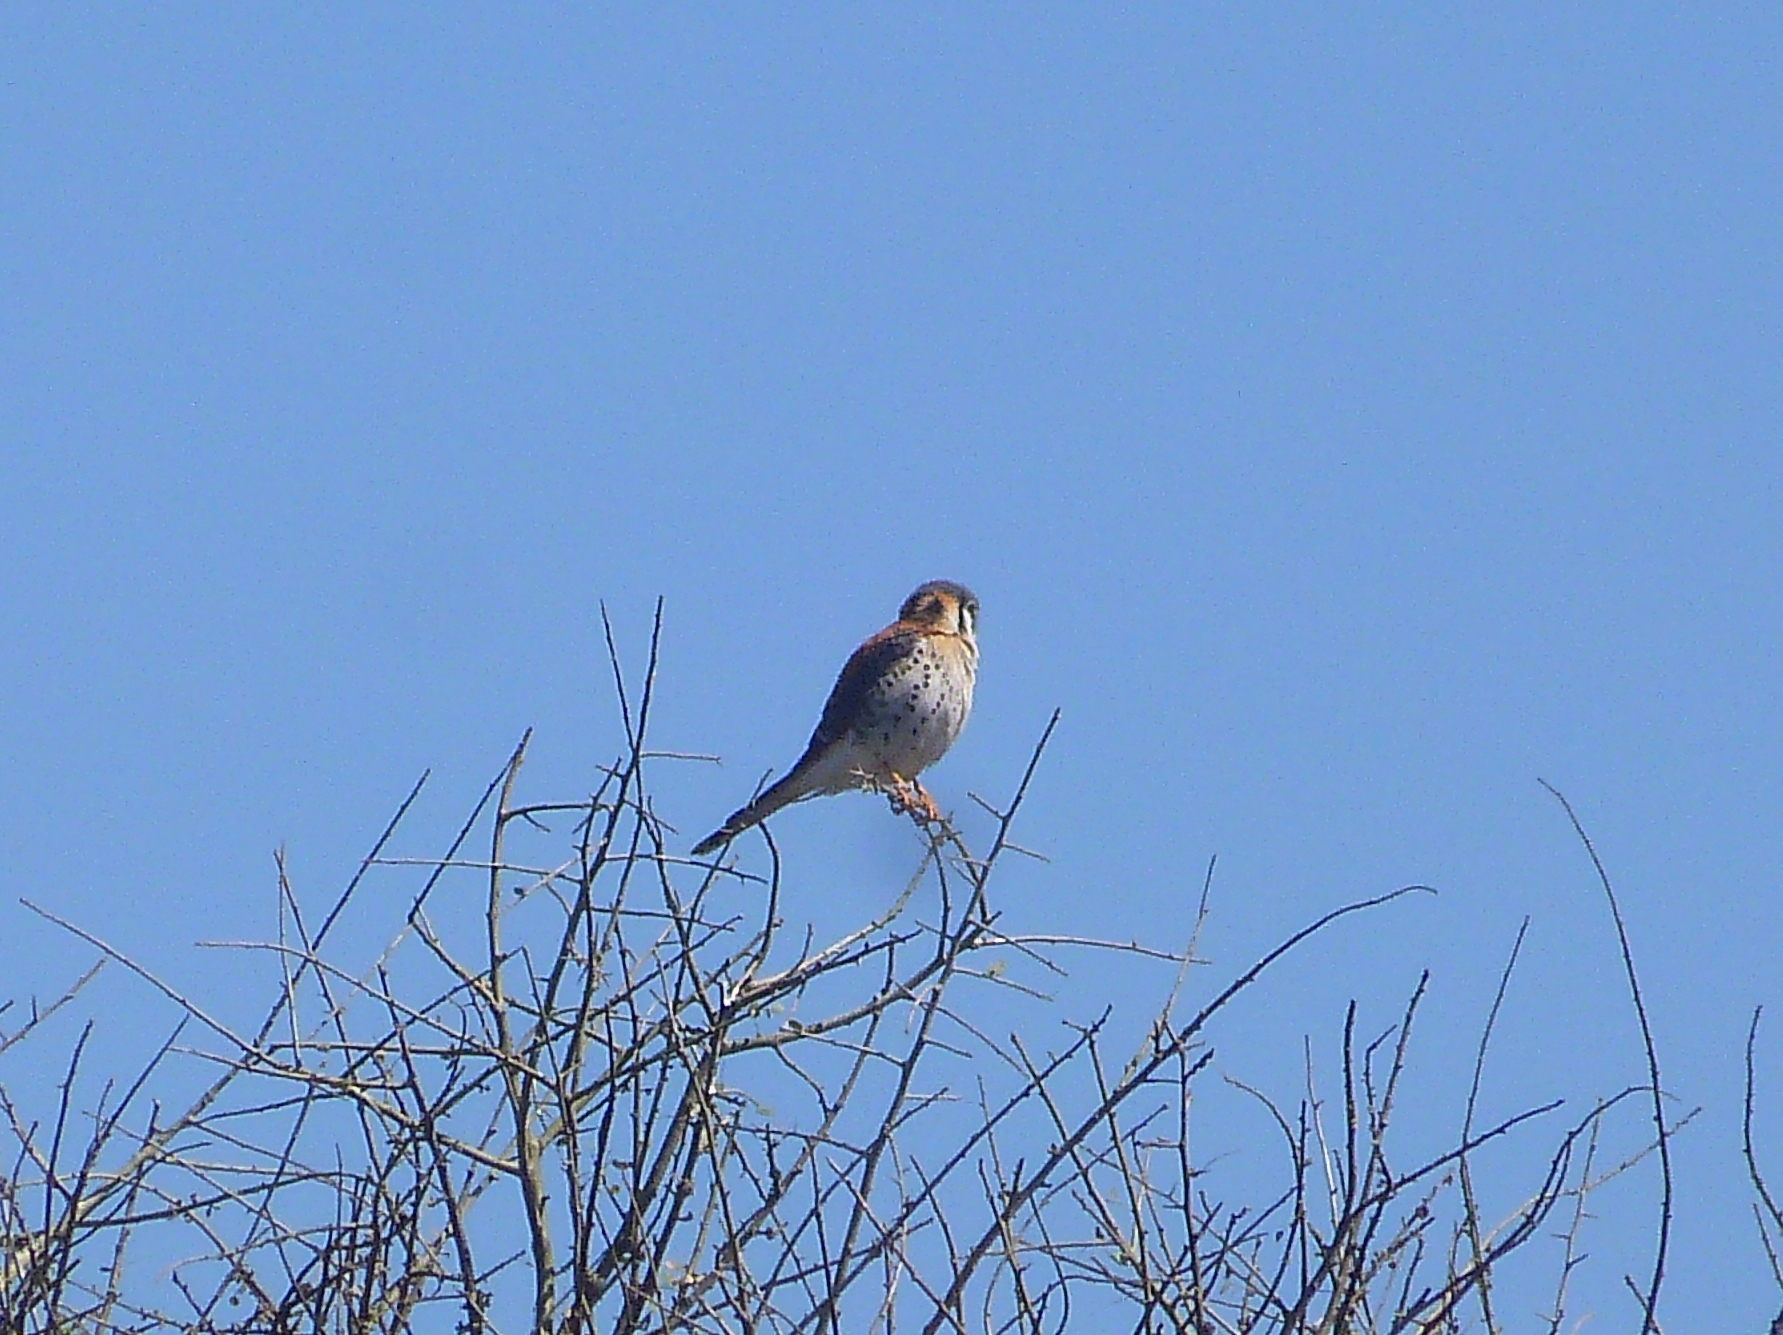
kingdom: Animalia
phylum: Chordata
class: Aves
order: Falconiformes
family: Falconidae
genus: Falco
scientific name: Falco sparverius
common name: American kestrel
